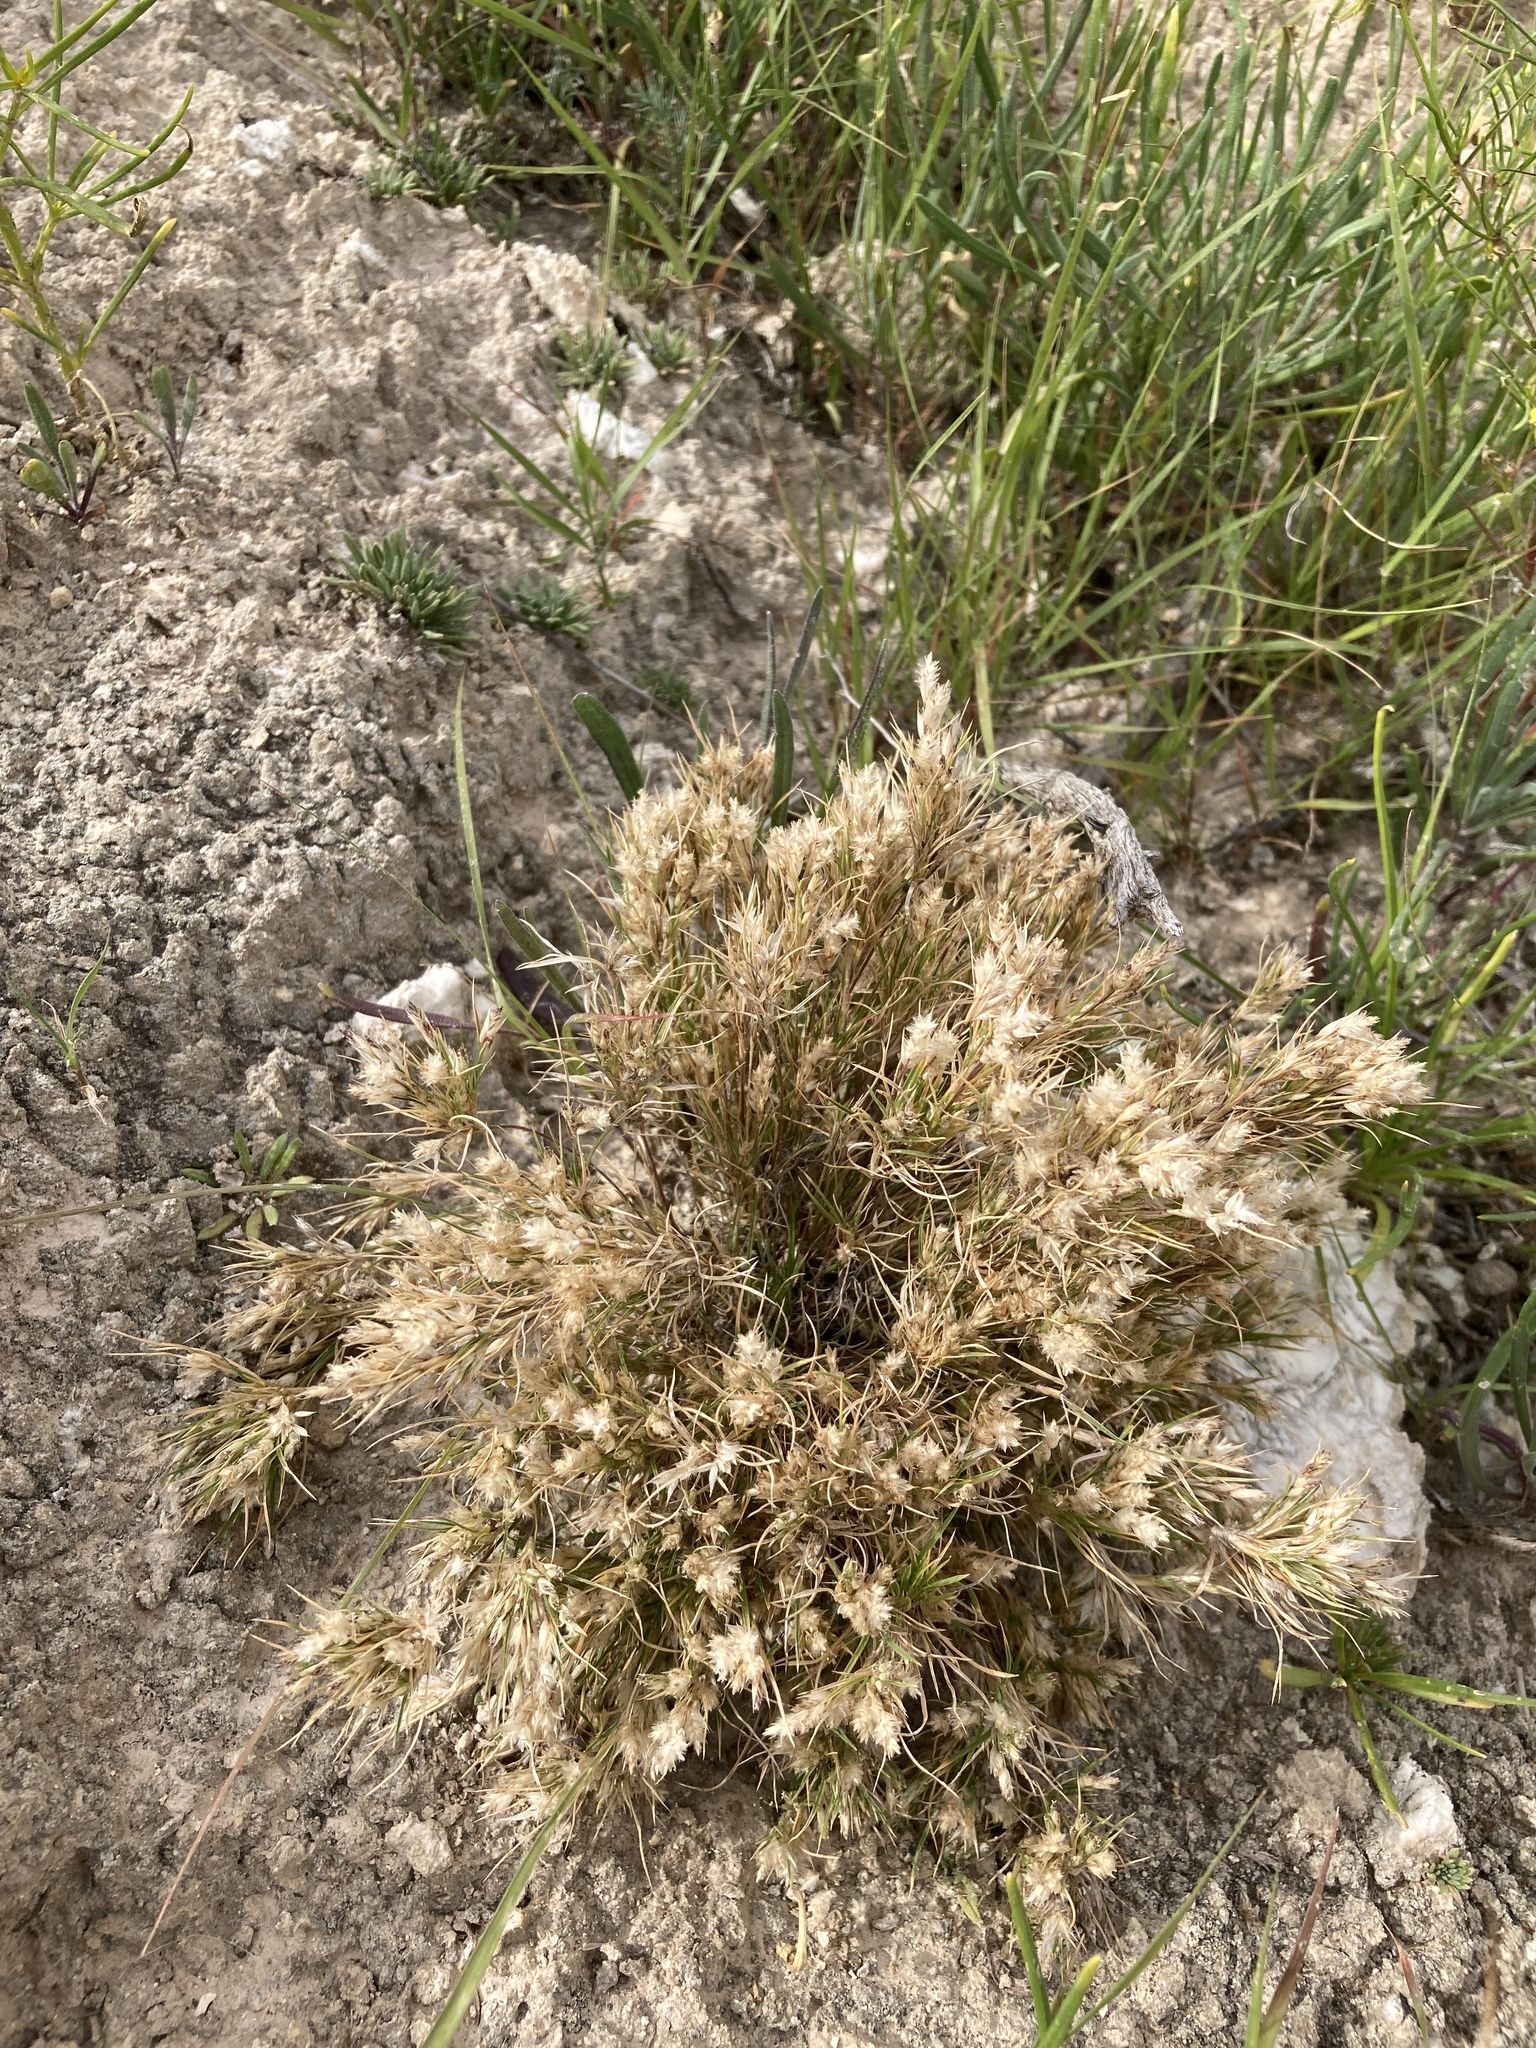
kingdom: Plantae
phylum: Tracheophyta
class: Liliopsida
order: Poales
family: Poaceae
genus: Dasyochloa
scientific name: Dasyochloa pulchella
